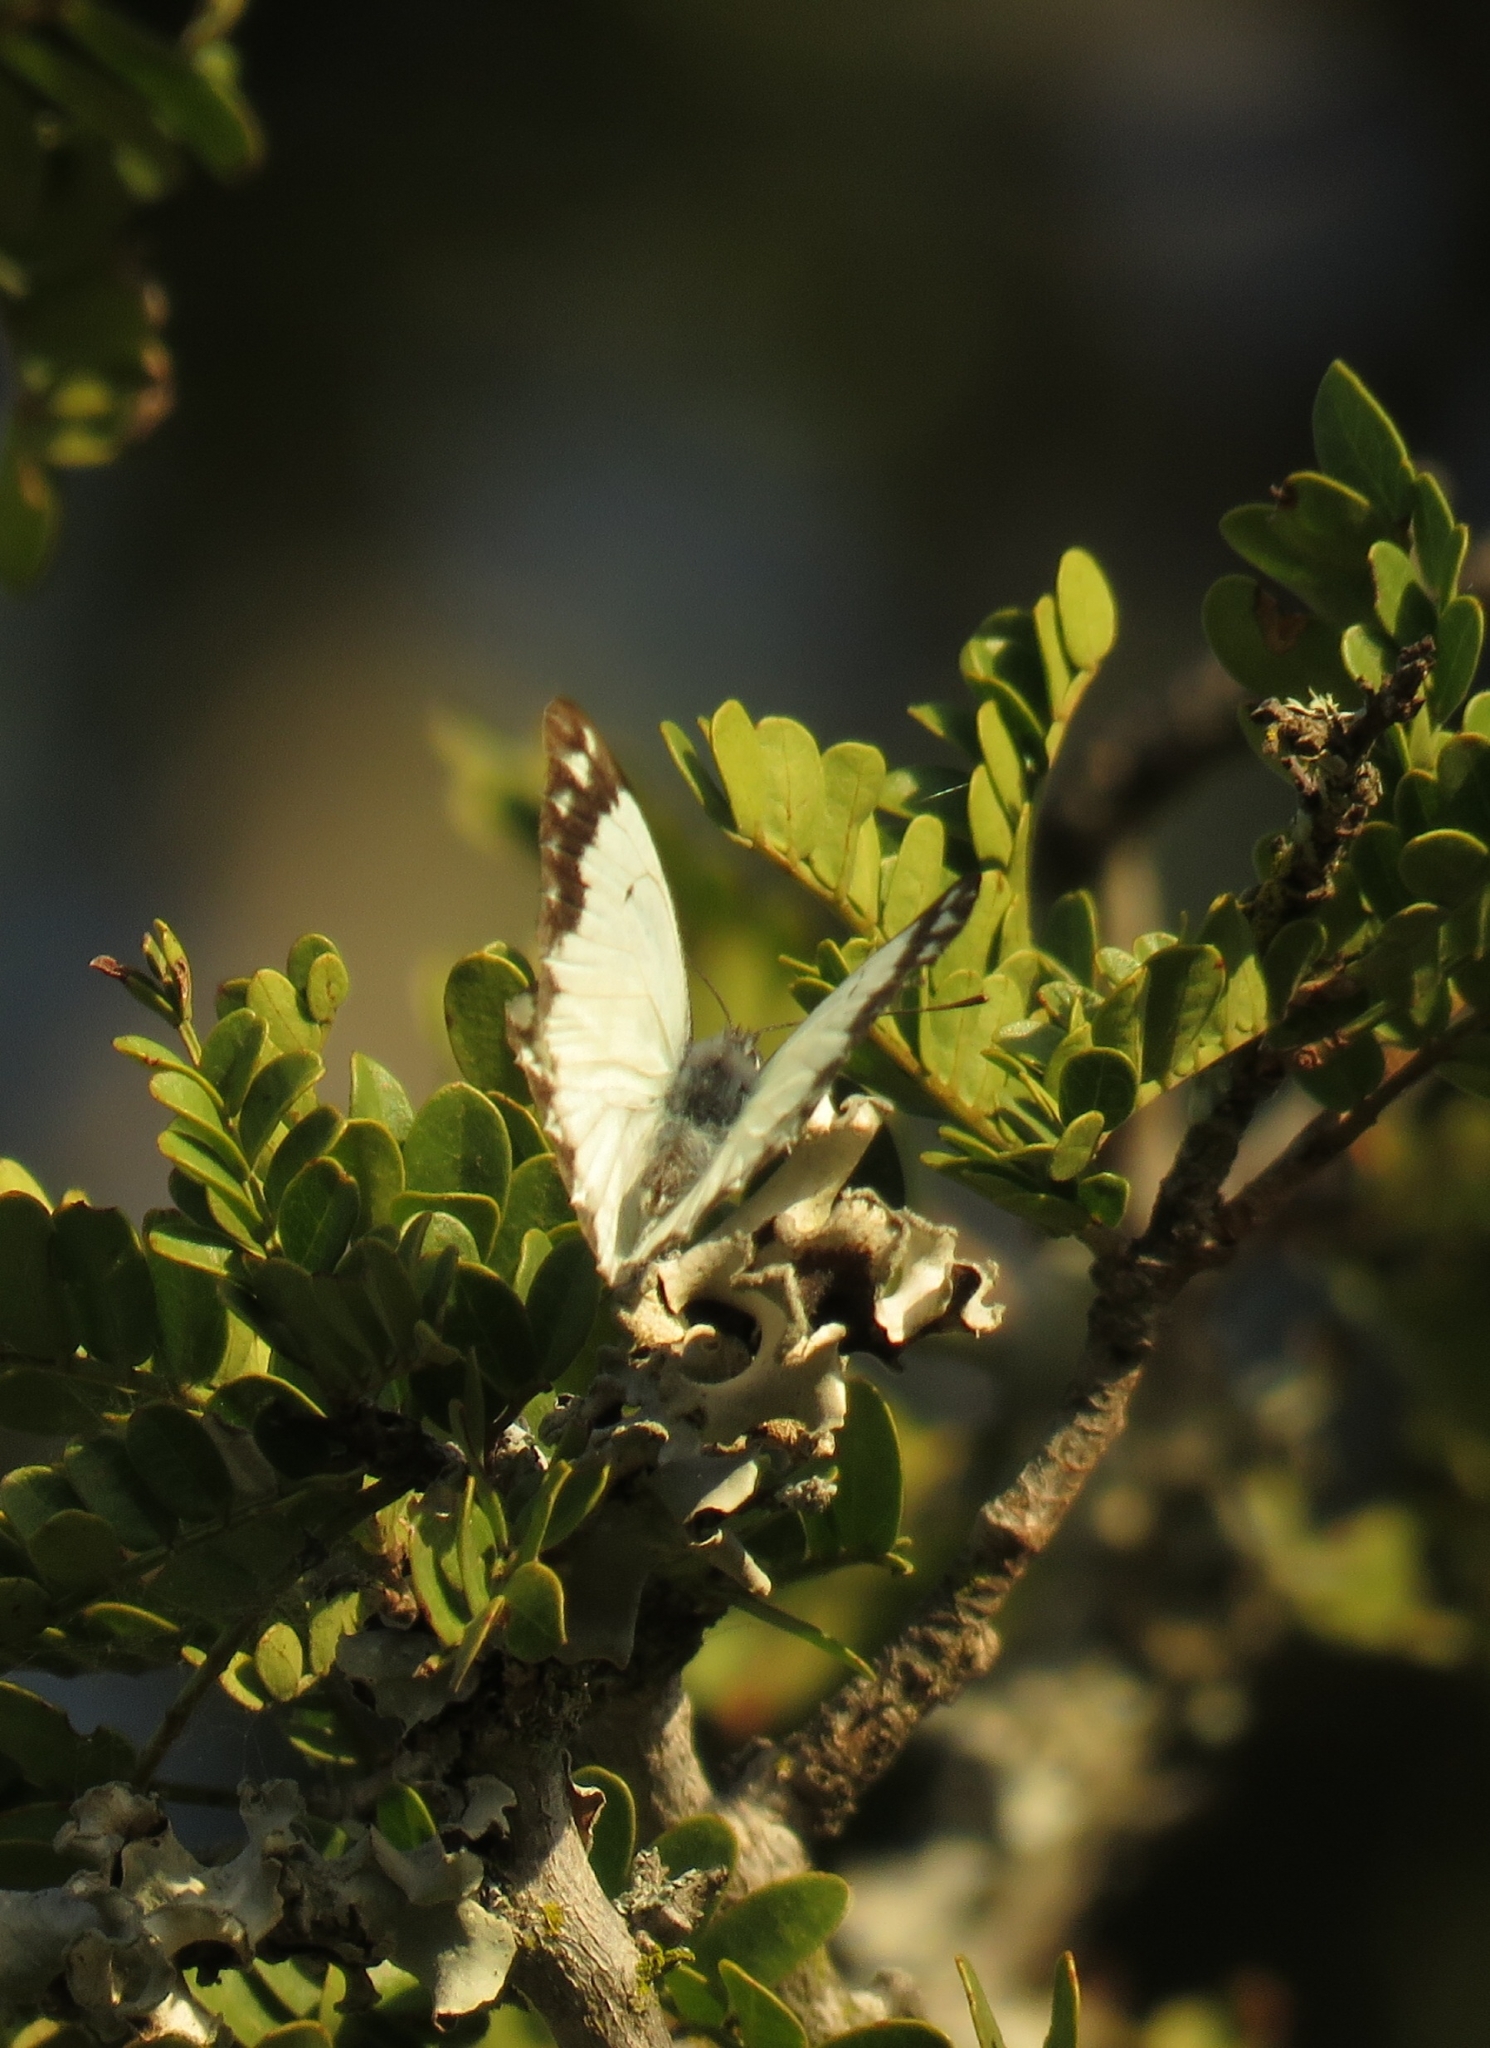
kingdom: Animalia
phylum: Arthropoda
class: Insecta
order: Lepidoptera
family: Pieridae
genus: Belenois
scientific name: Belenois creona
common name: African caper white
